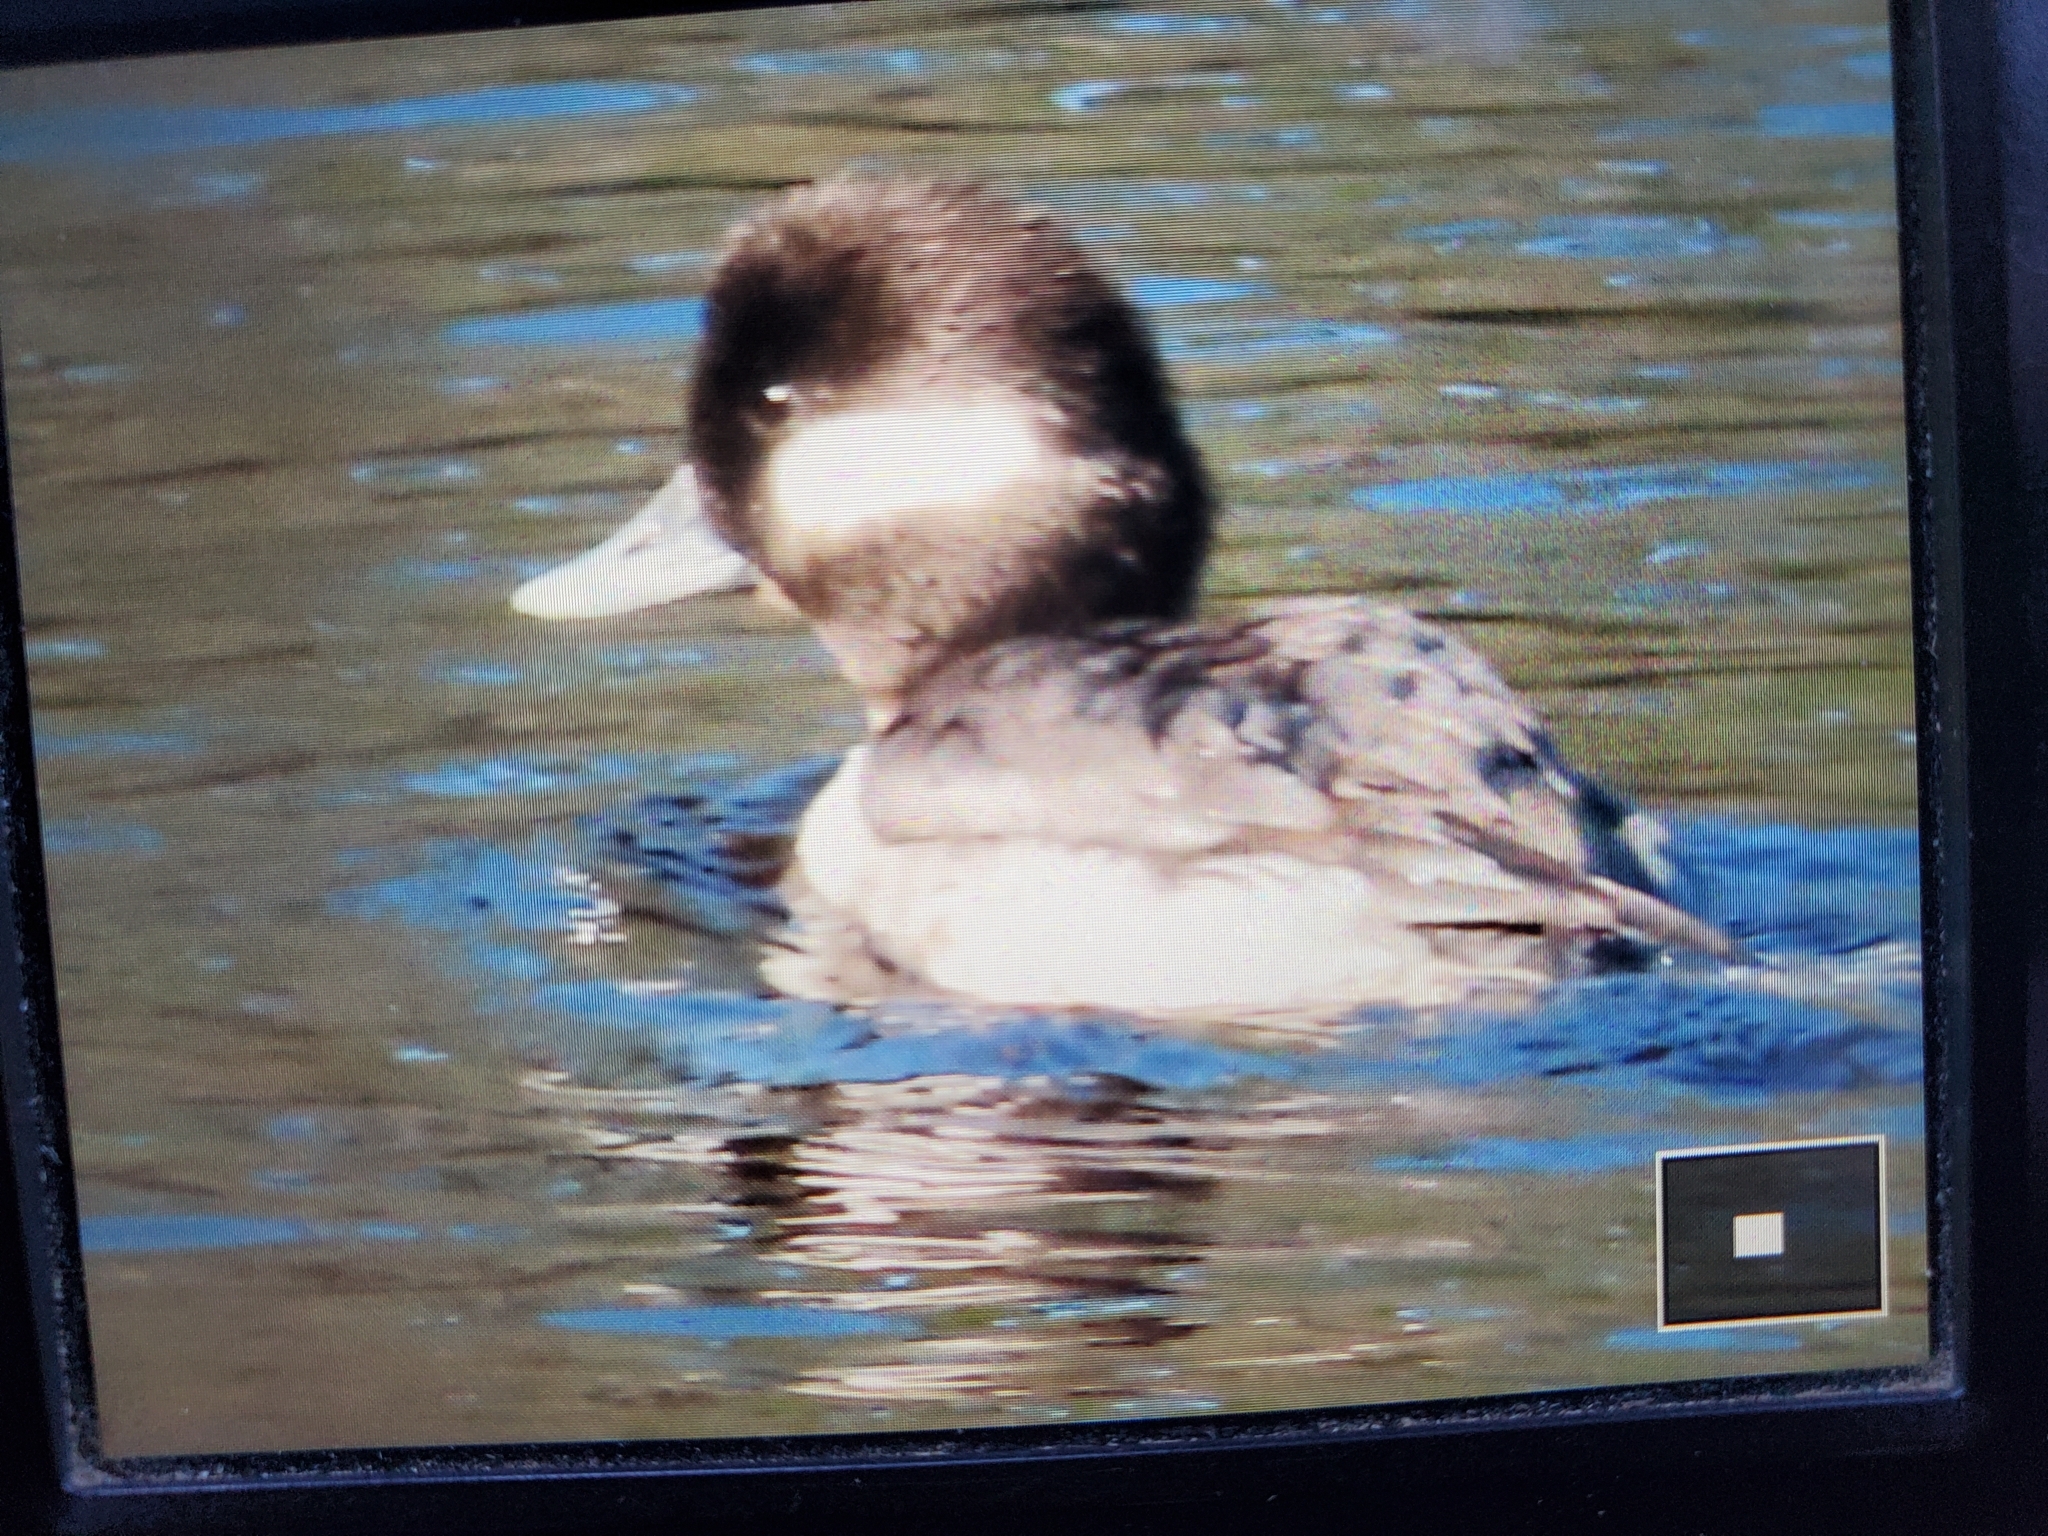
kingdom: Animalia
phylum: Chordata
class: Aves
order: Anseriformes
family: Anatidae
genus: Bucephala
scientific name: Bucephala albeola
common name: Bufflehead
